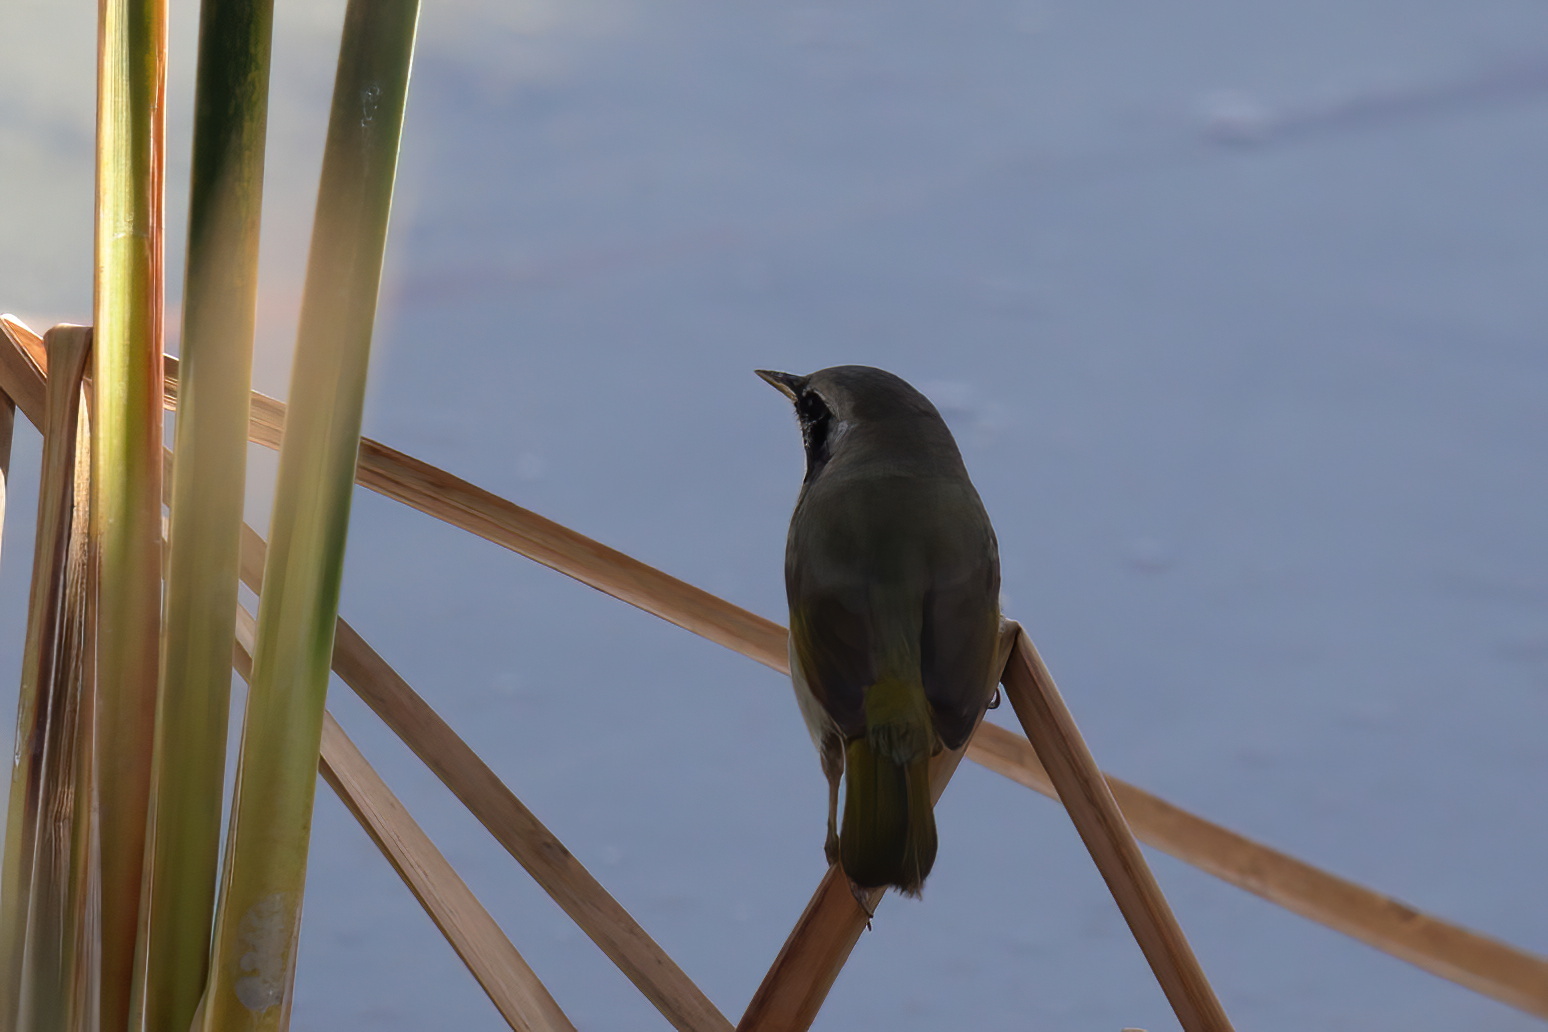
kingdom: Animalia
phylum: Chordata
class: Aves
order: Passeriformes
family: Parulidae
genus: Geothlypis
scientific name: Geothlypis trichas
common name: Common yellowthroat
